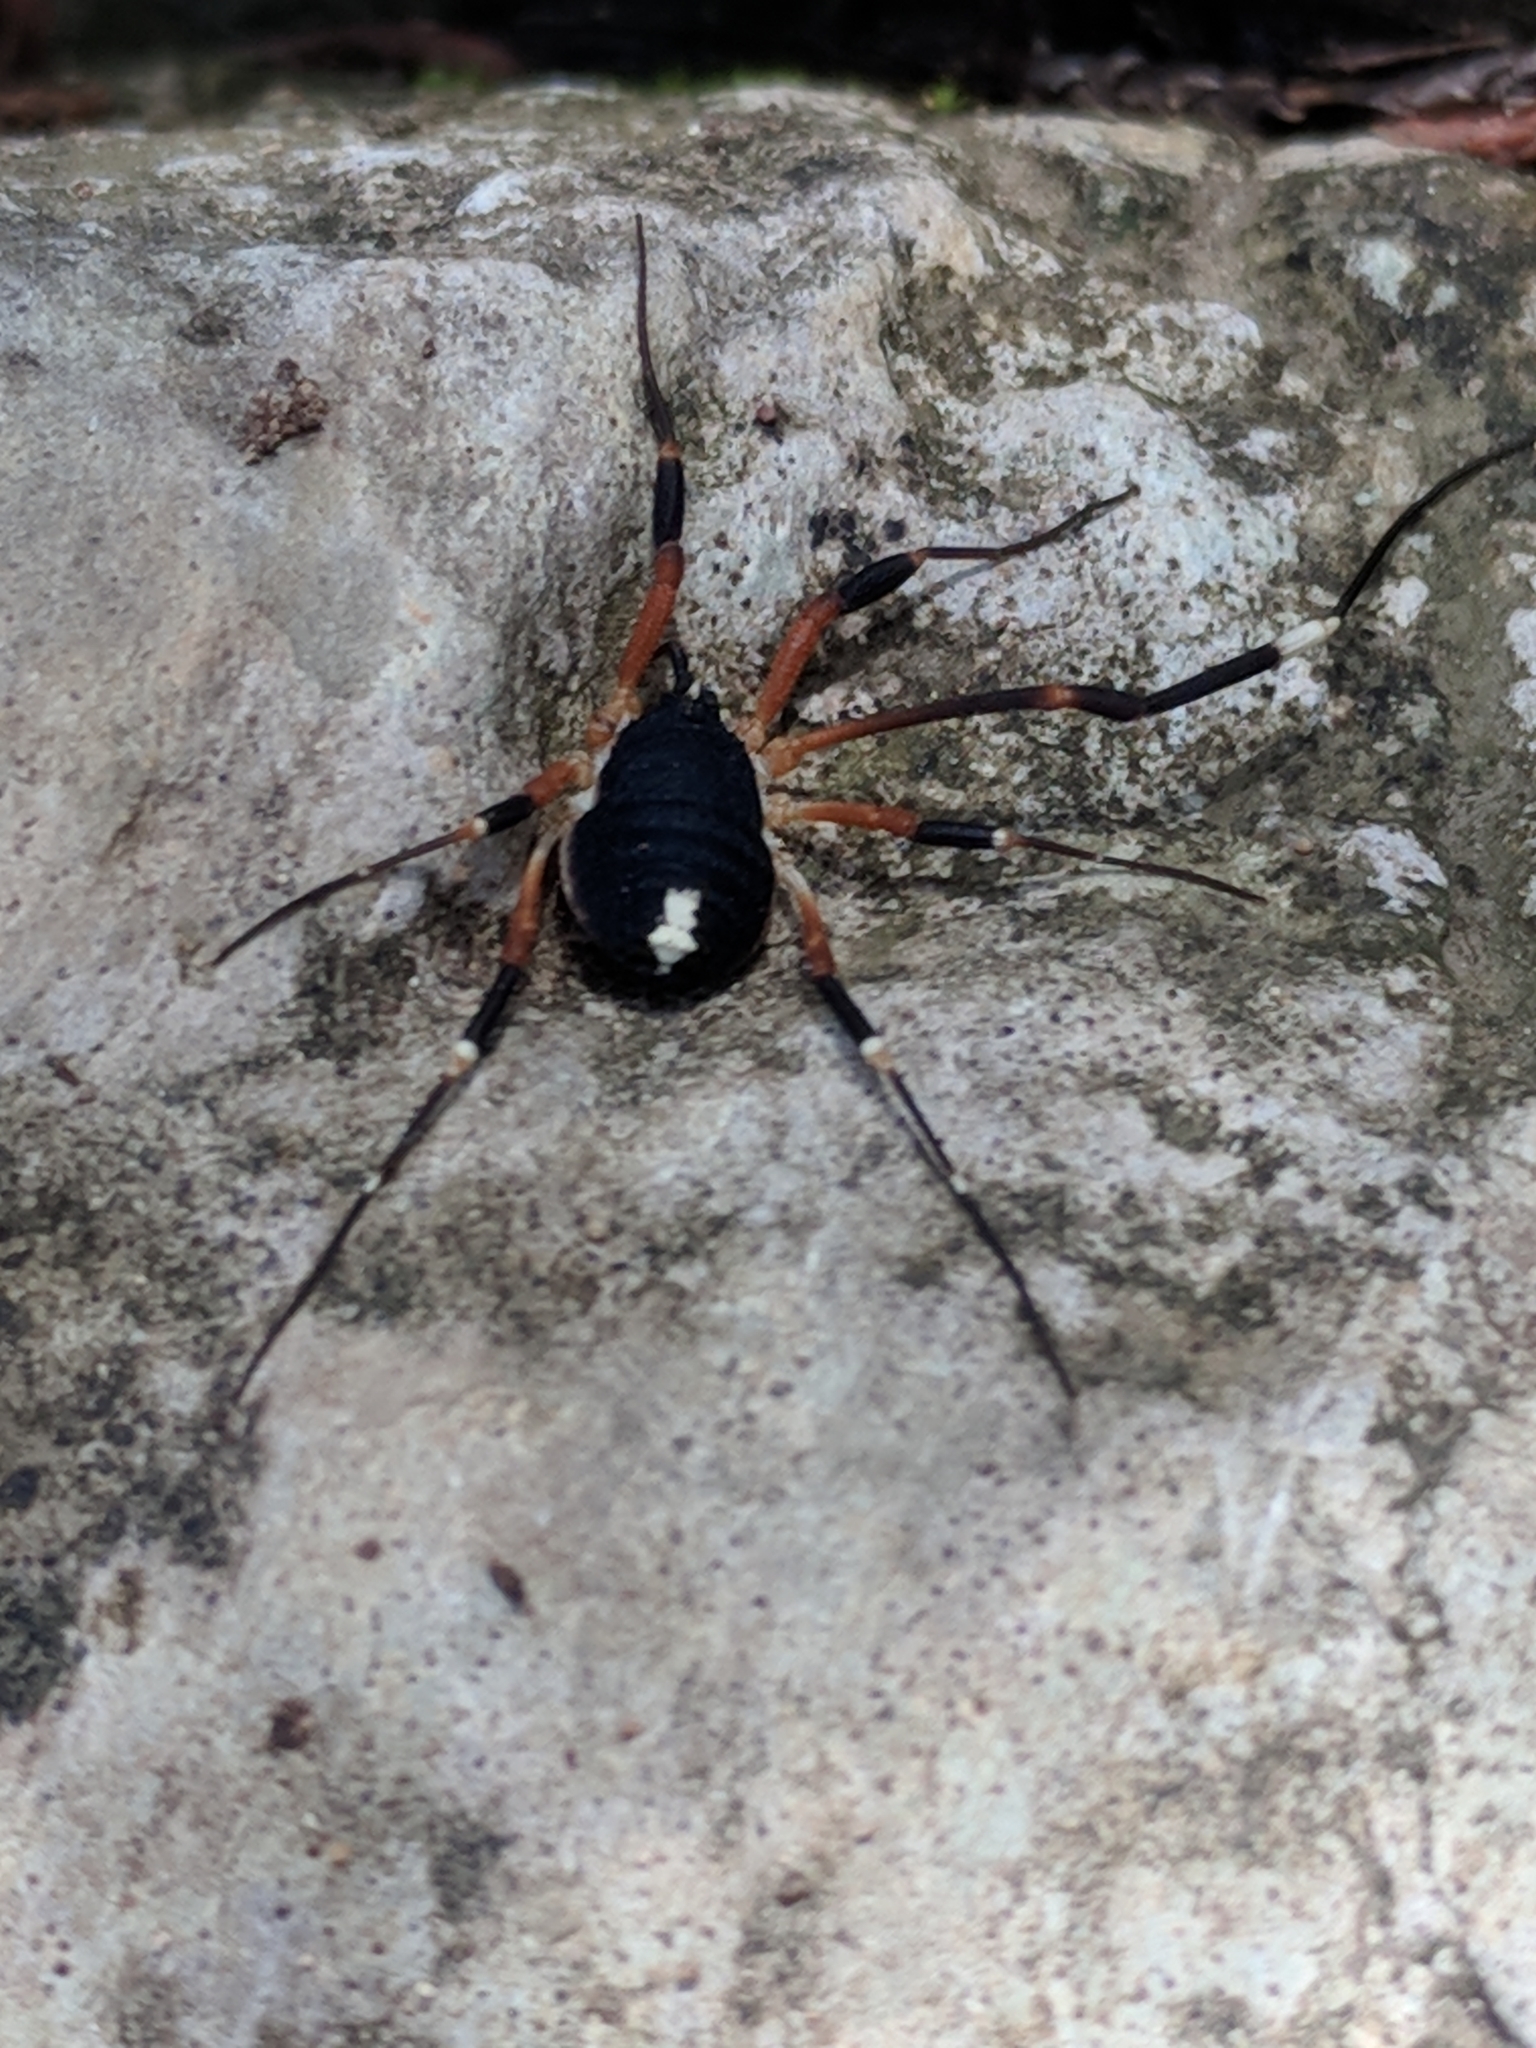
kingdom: Animalia
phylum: Arthropoda
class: Arachnida
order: Opiliones
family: Globipedidae
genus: Dalquestia
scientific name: Dalquestia formosa
